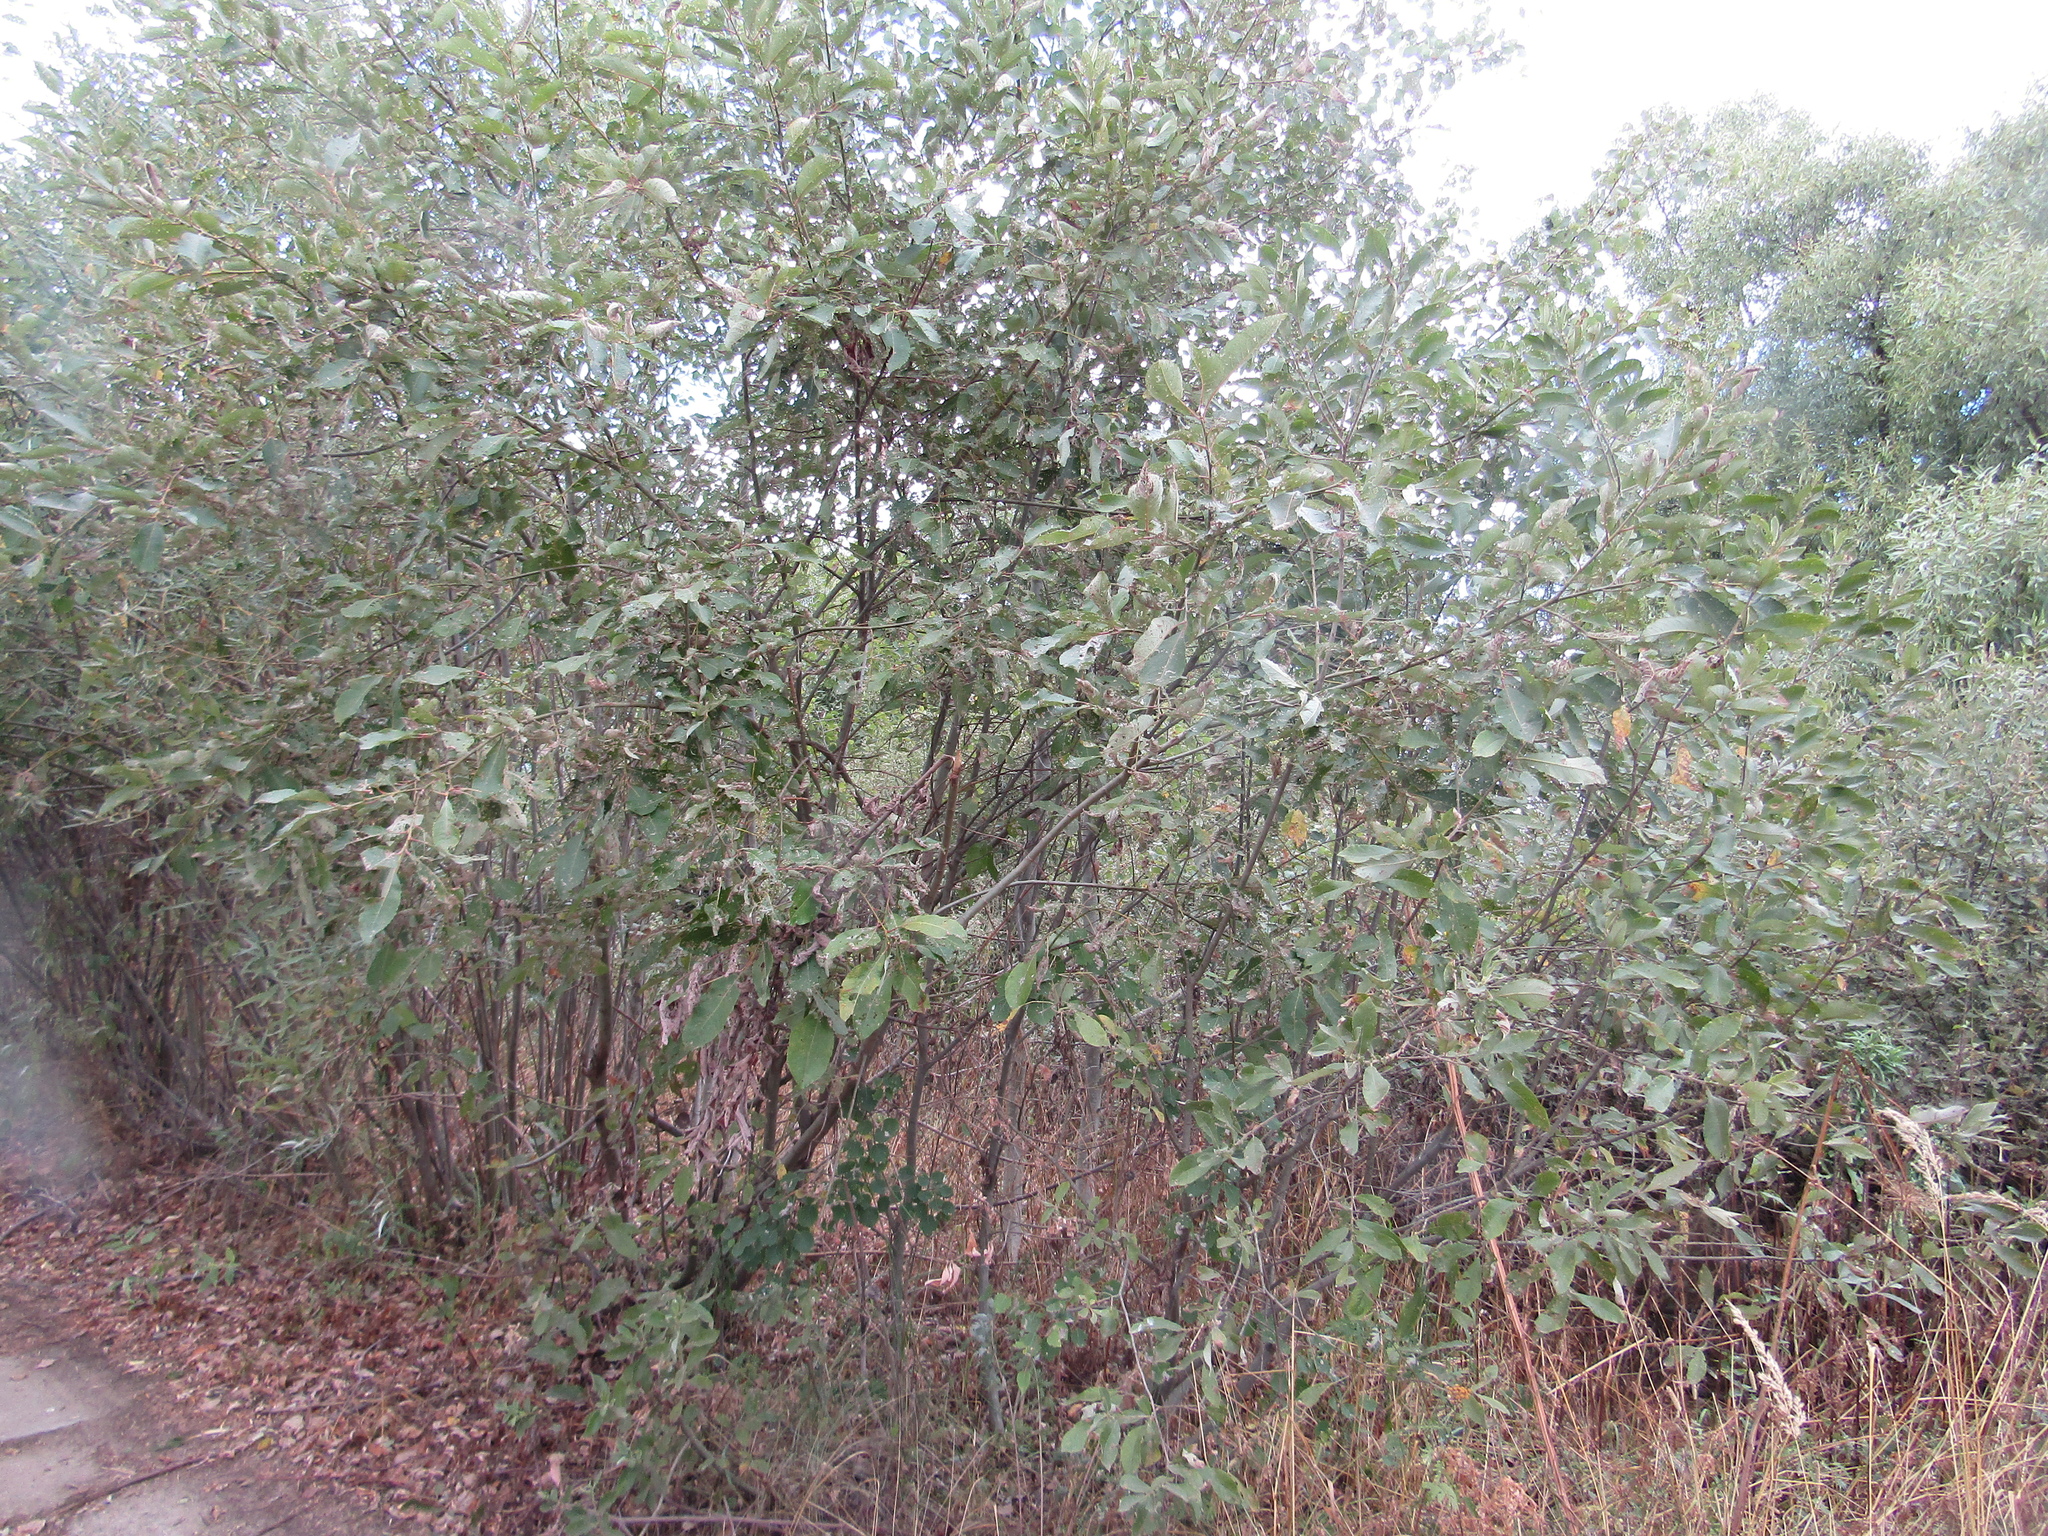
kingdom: Plantae
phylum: Tracheophyta
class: Magnoliopsida
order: Malpighiales
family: Salicaceae
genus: Salix
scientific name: Salix caprea
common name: Goat willow
